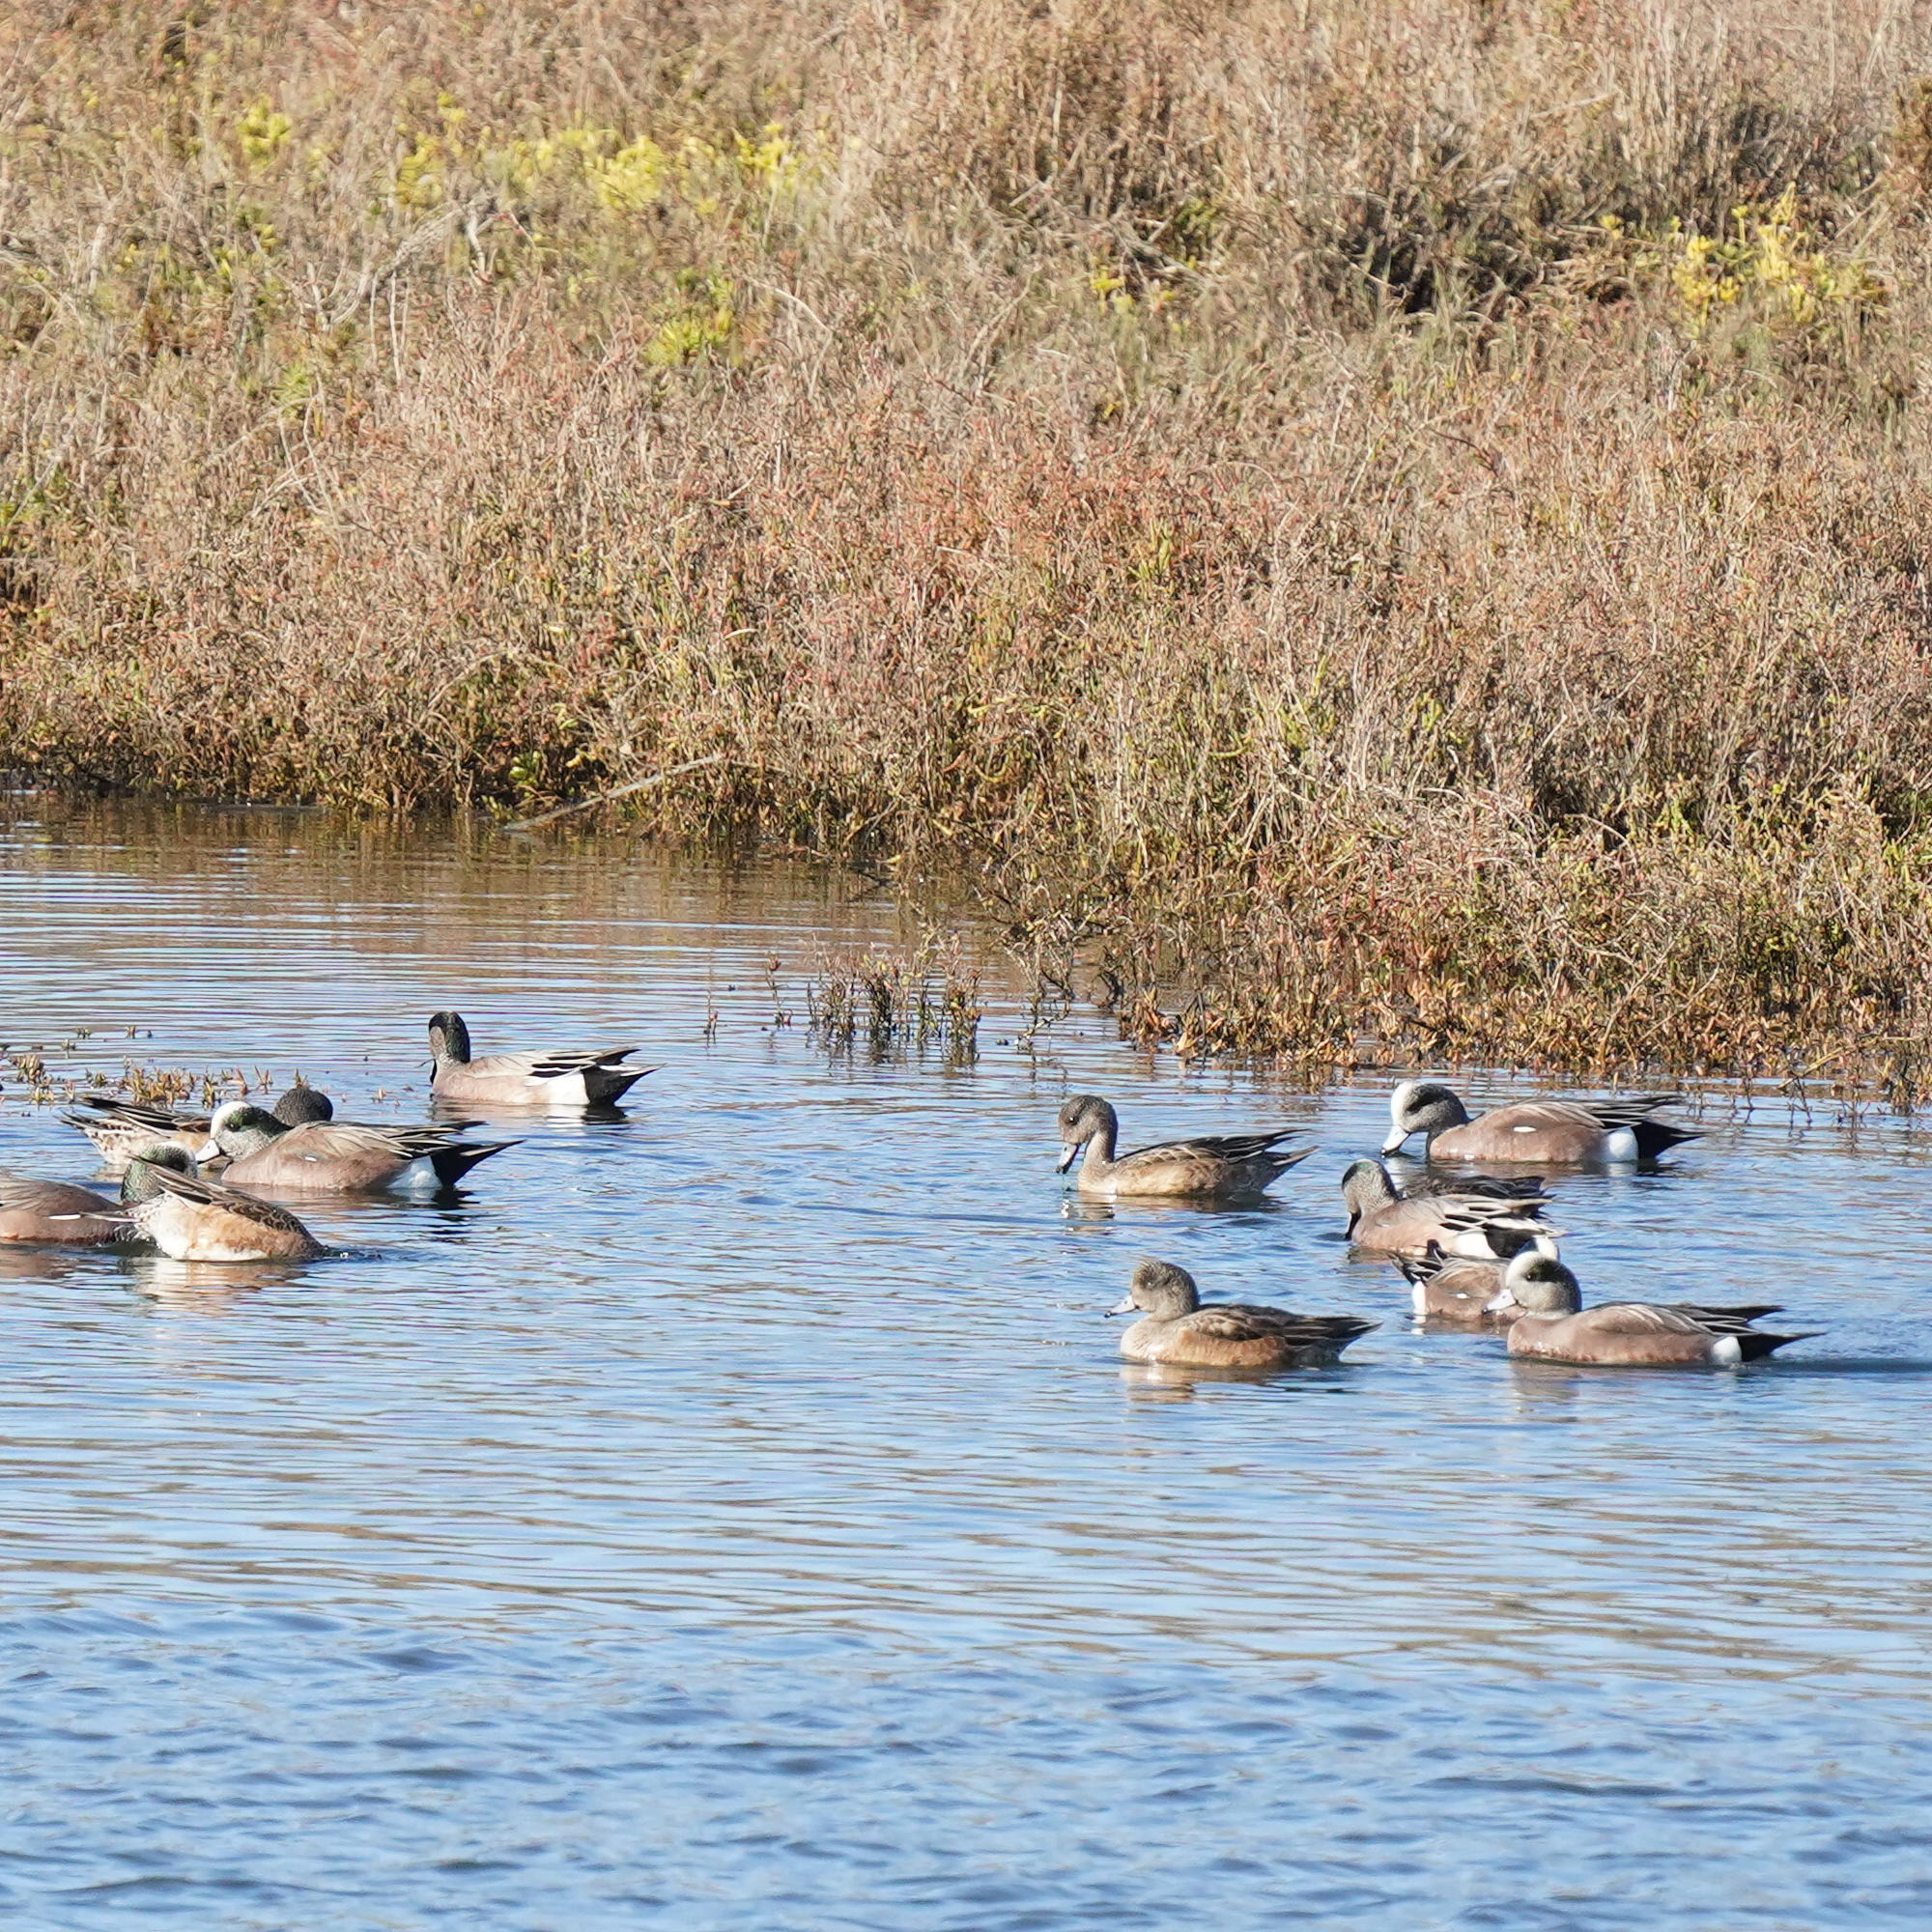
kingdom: Animalia
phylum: Chordata
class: Aves
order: Anseriformes
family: Anatidae
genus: Mareca
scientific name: Mareca americana
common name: American wigeon
